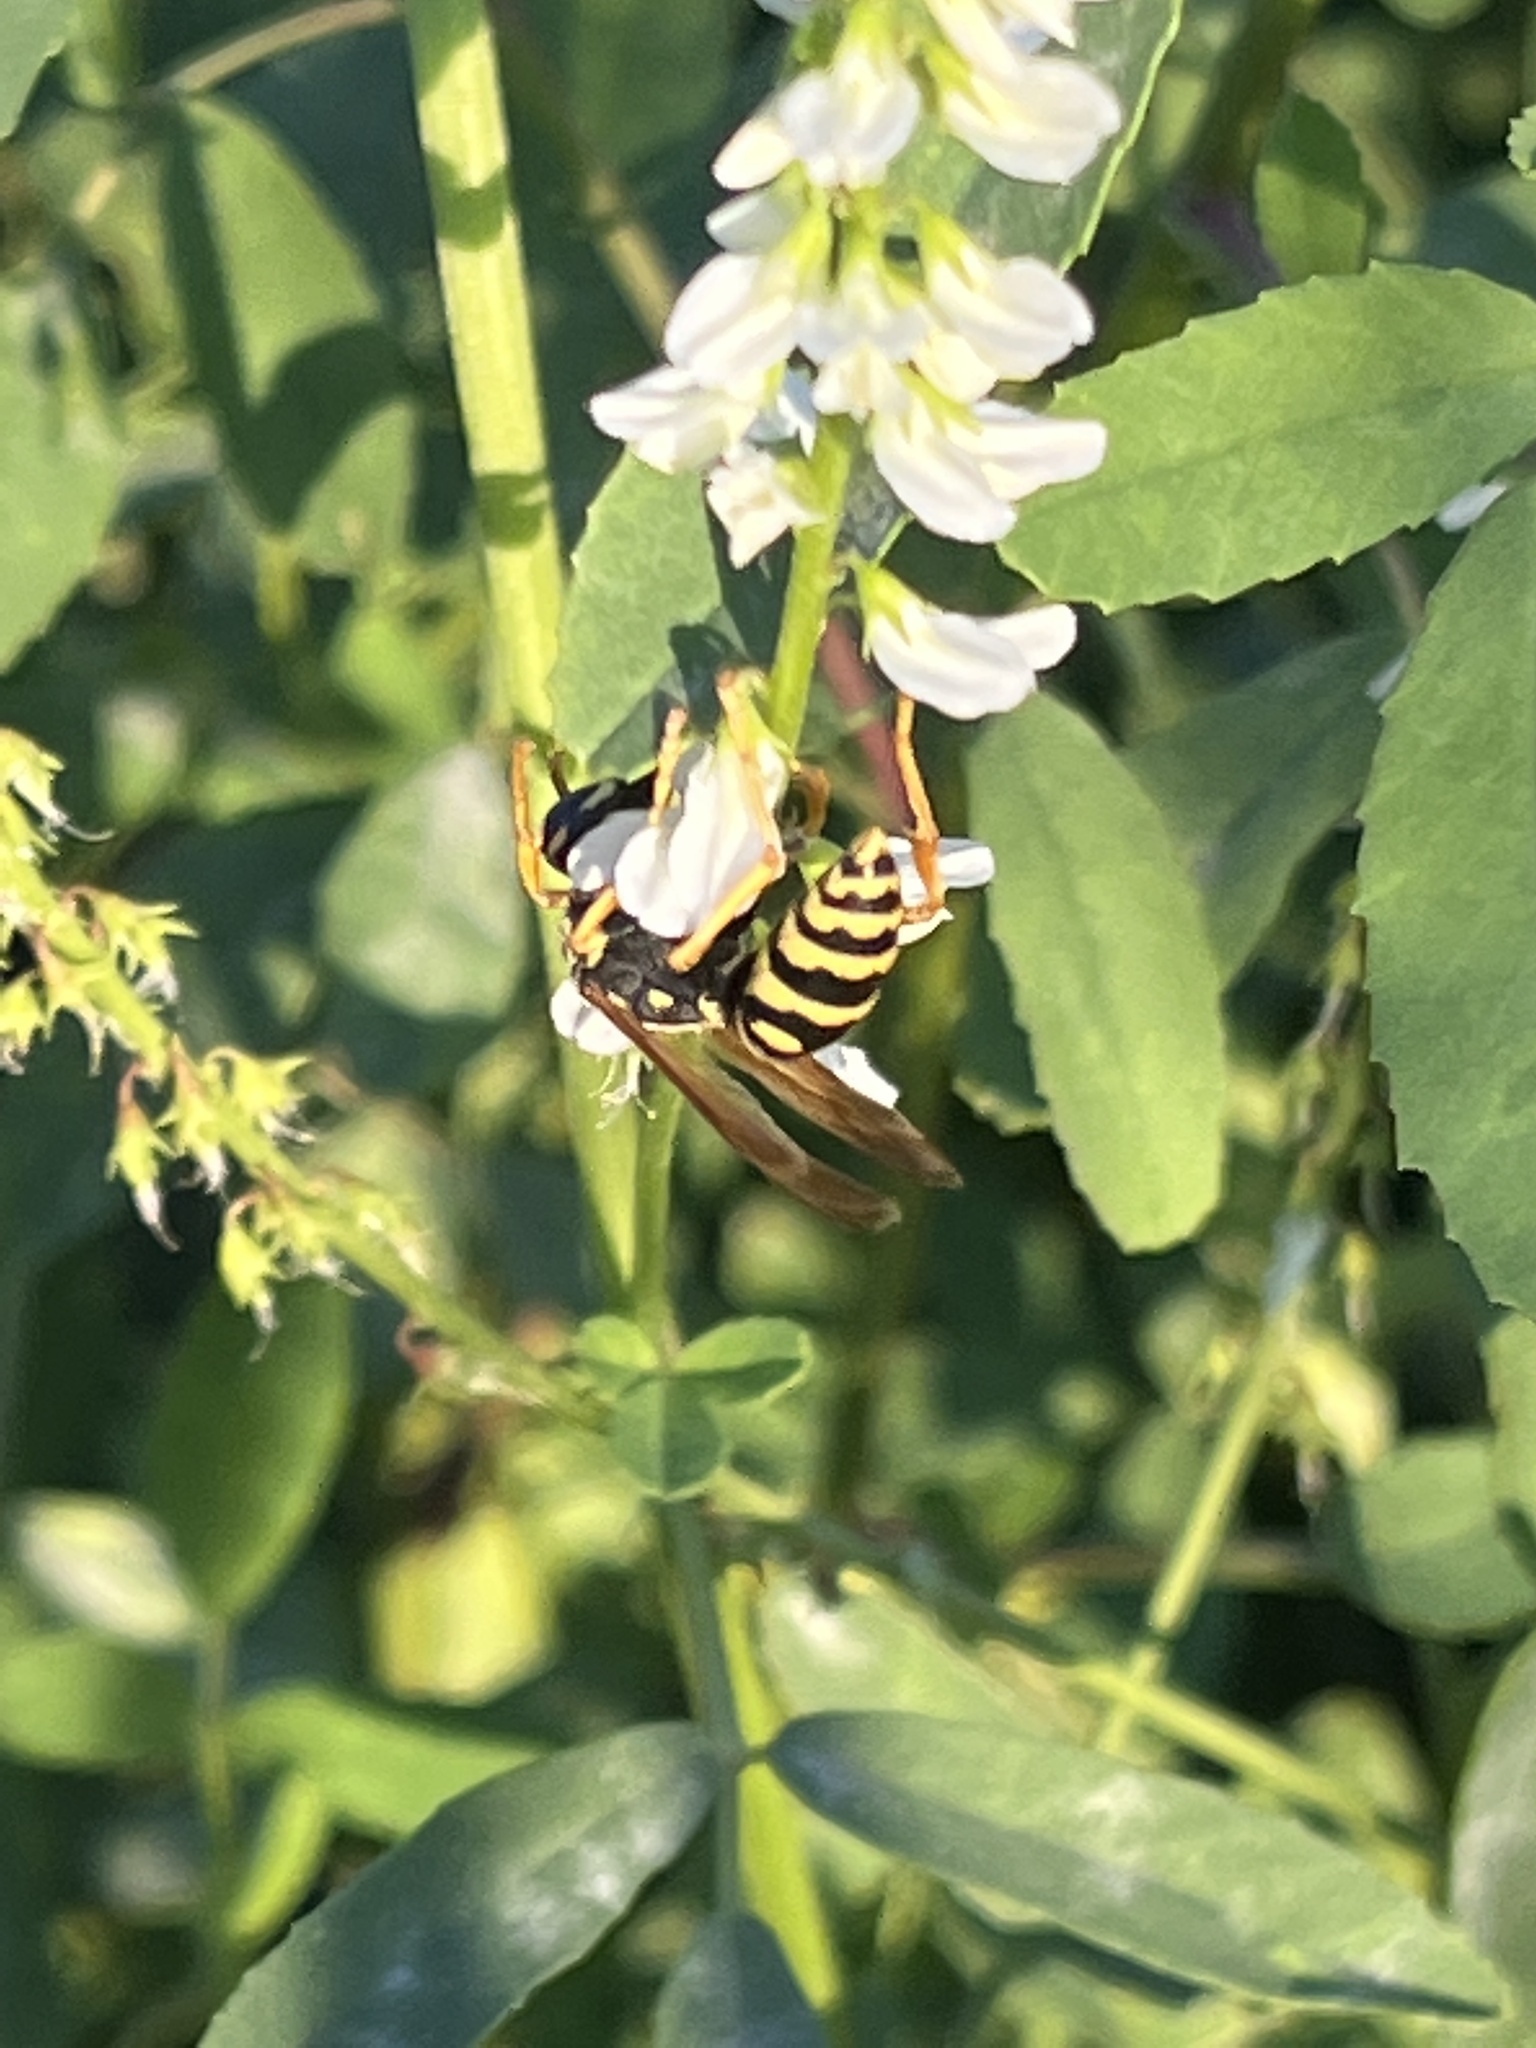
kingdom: Animalia
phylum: Arthropoda
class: Insecta
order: Hymenoptera
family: Eumenidae
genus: Polistes
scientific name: Polistes dominula
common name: Paper wasp
